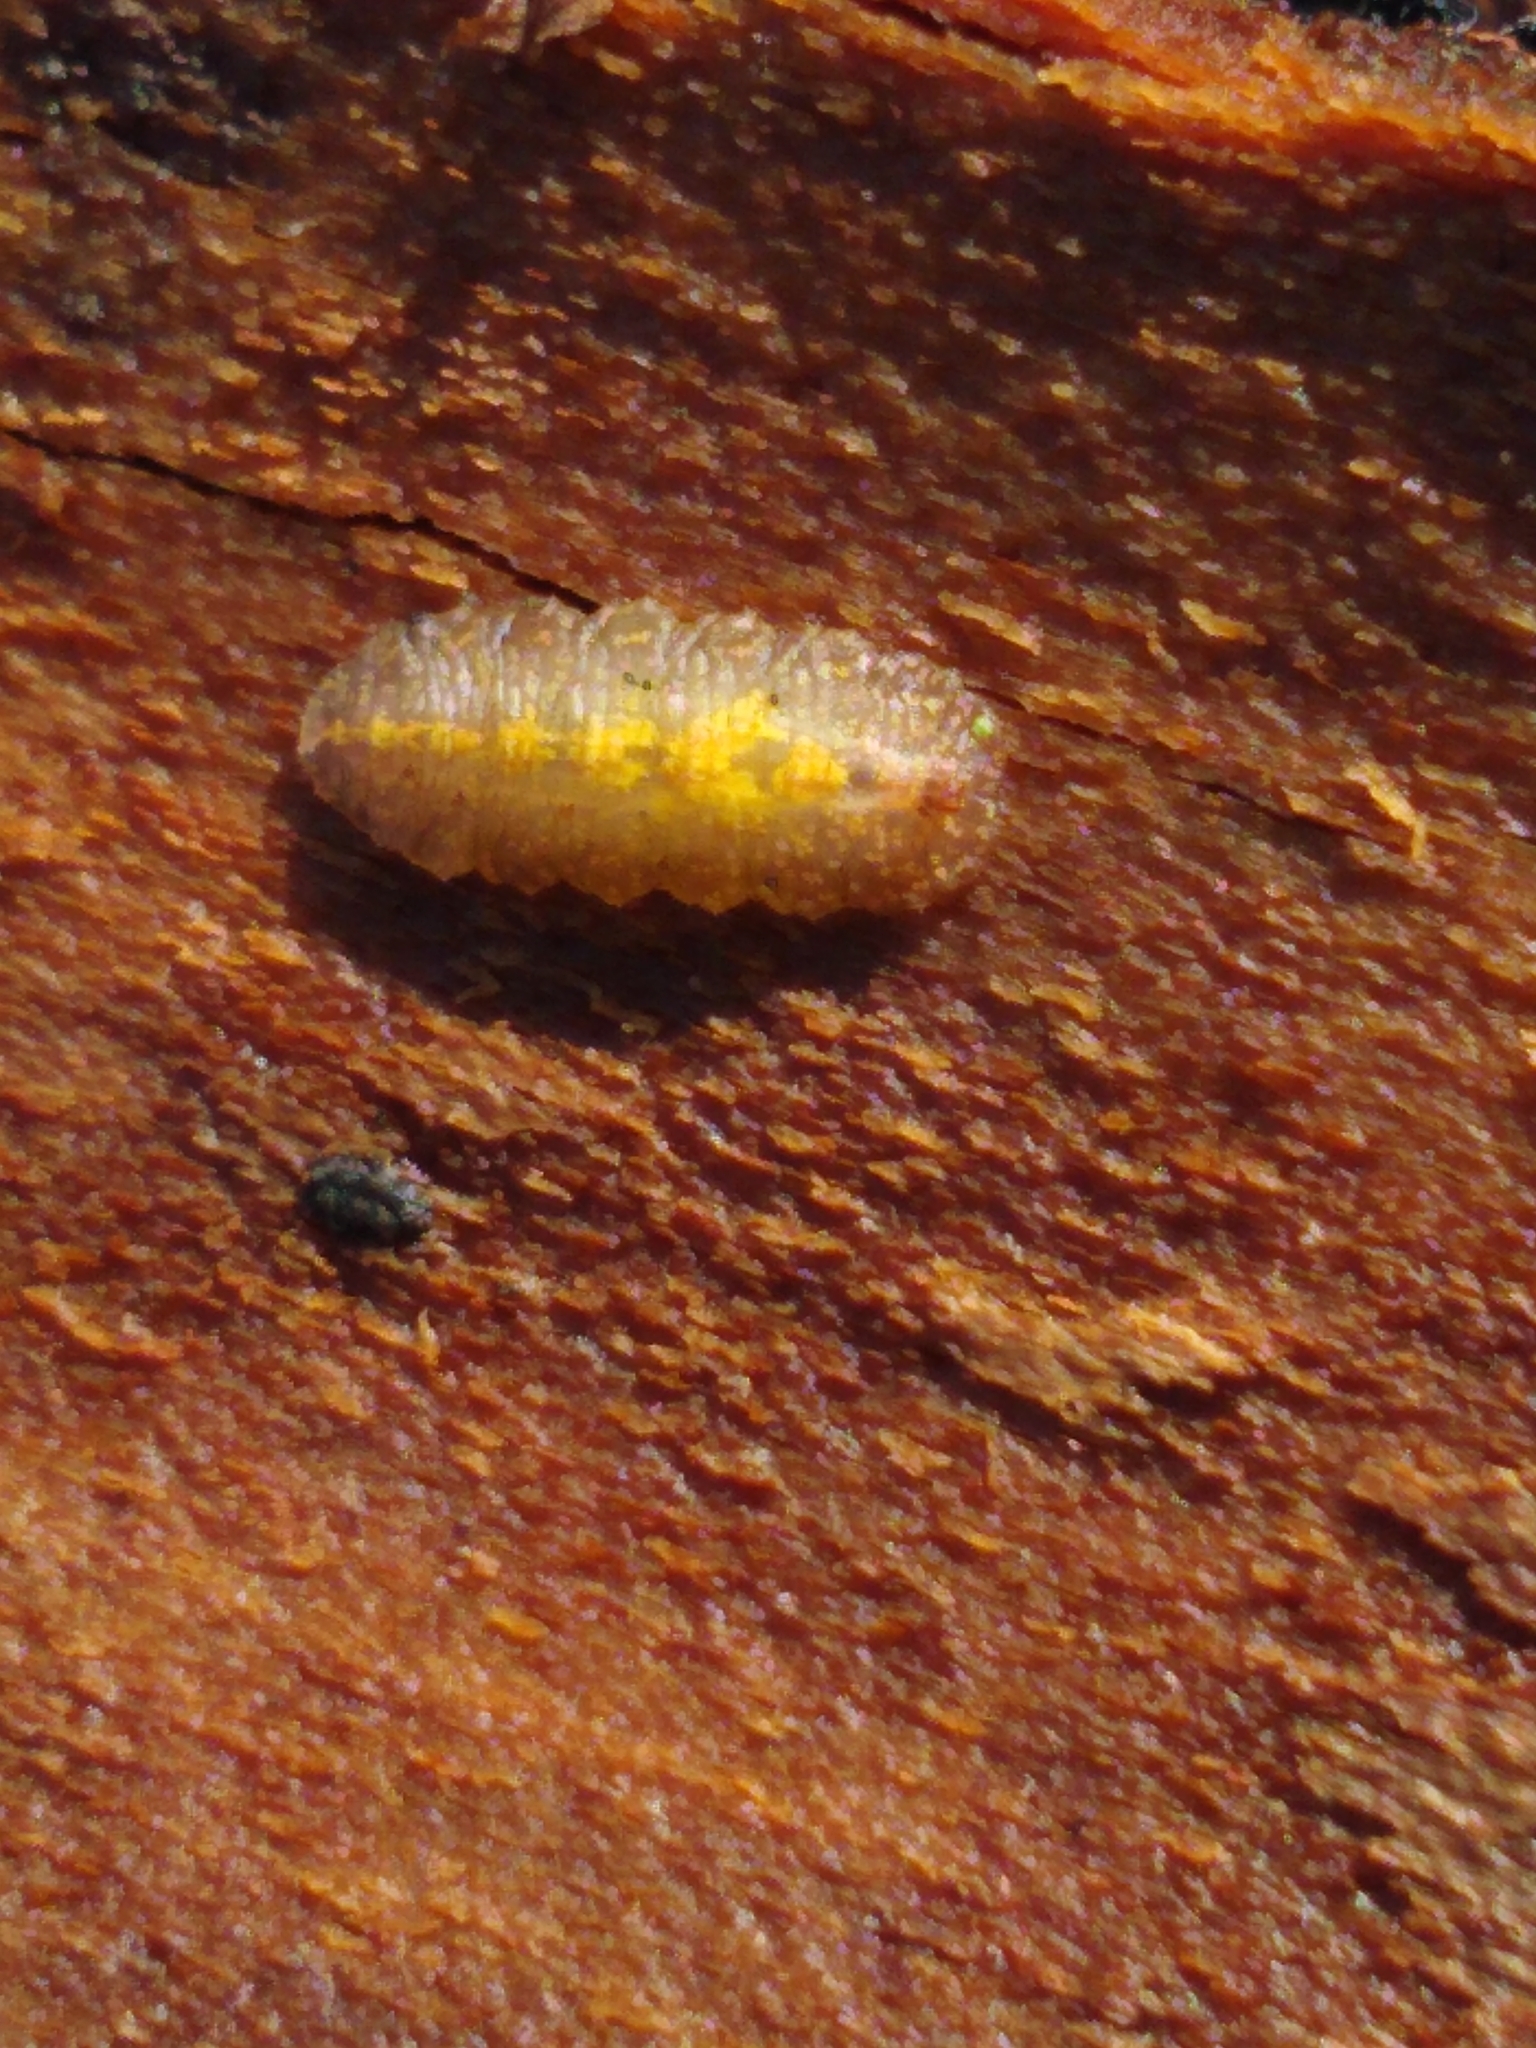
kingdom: Animalia
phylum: Arthropoda
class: Insecta
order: Diptera
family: Syrphidae
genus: Epistrophe
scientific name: Epistrophe
